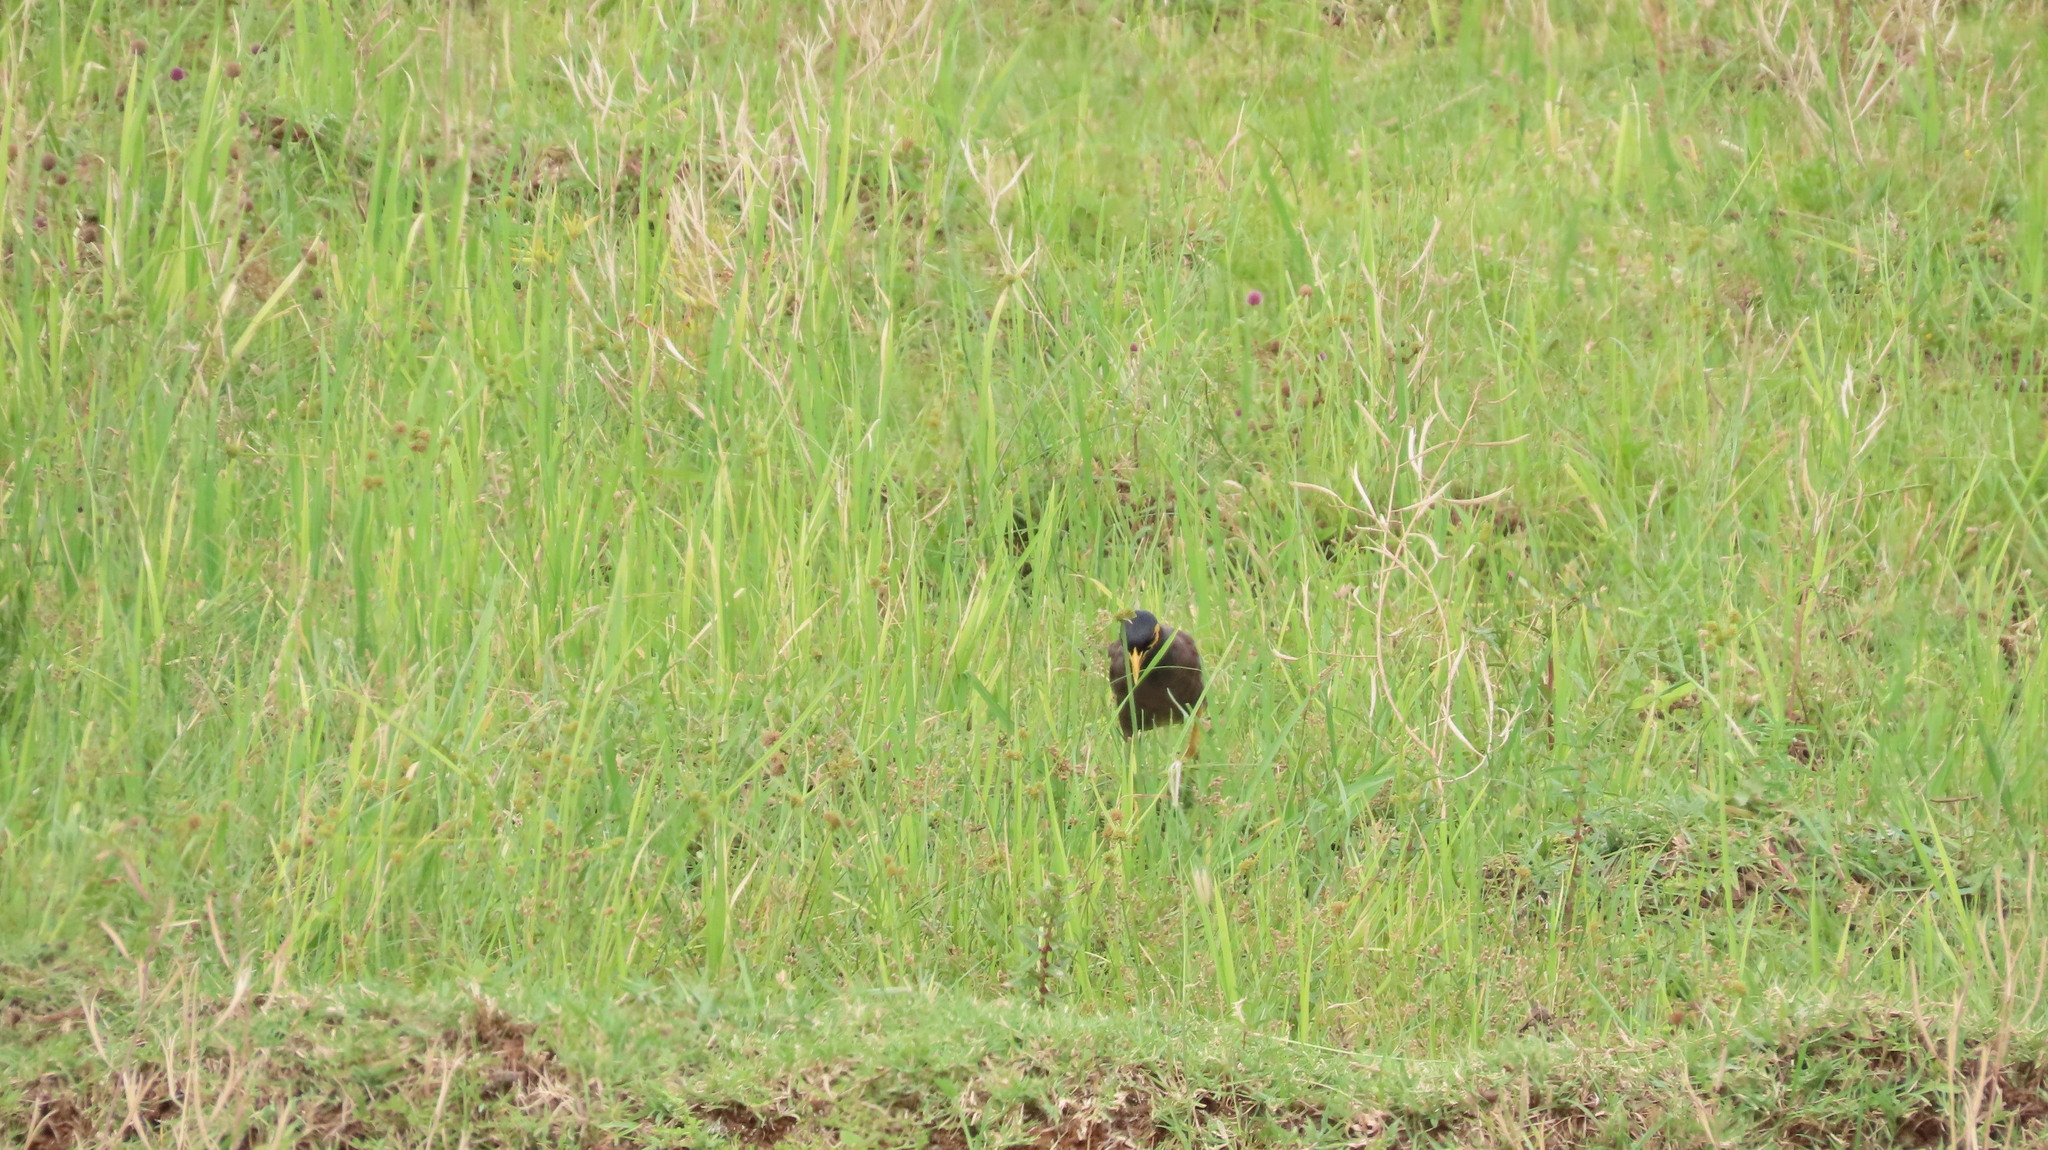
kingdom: Animalia
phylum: Chordata
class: Aves
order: Passeriformes
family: Sturnidae
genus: Acridotheres
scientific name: Acridotheres tristis
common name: Common myna
